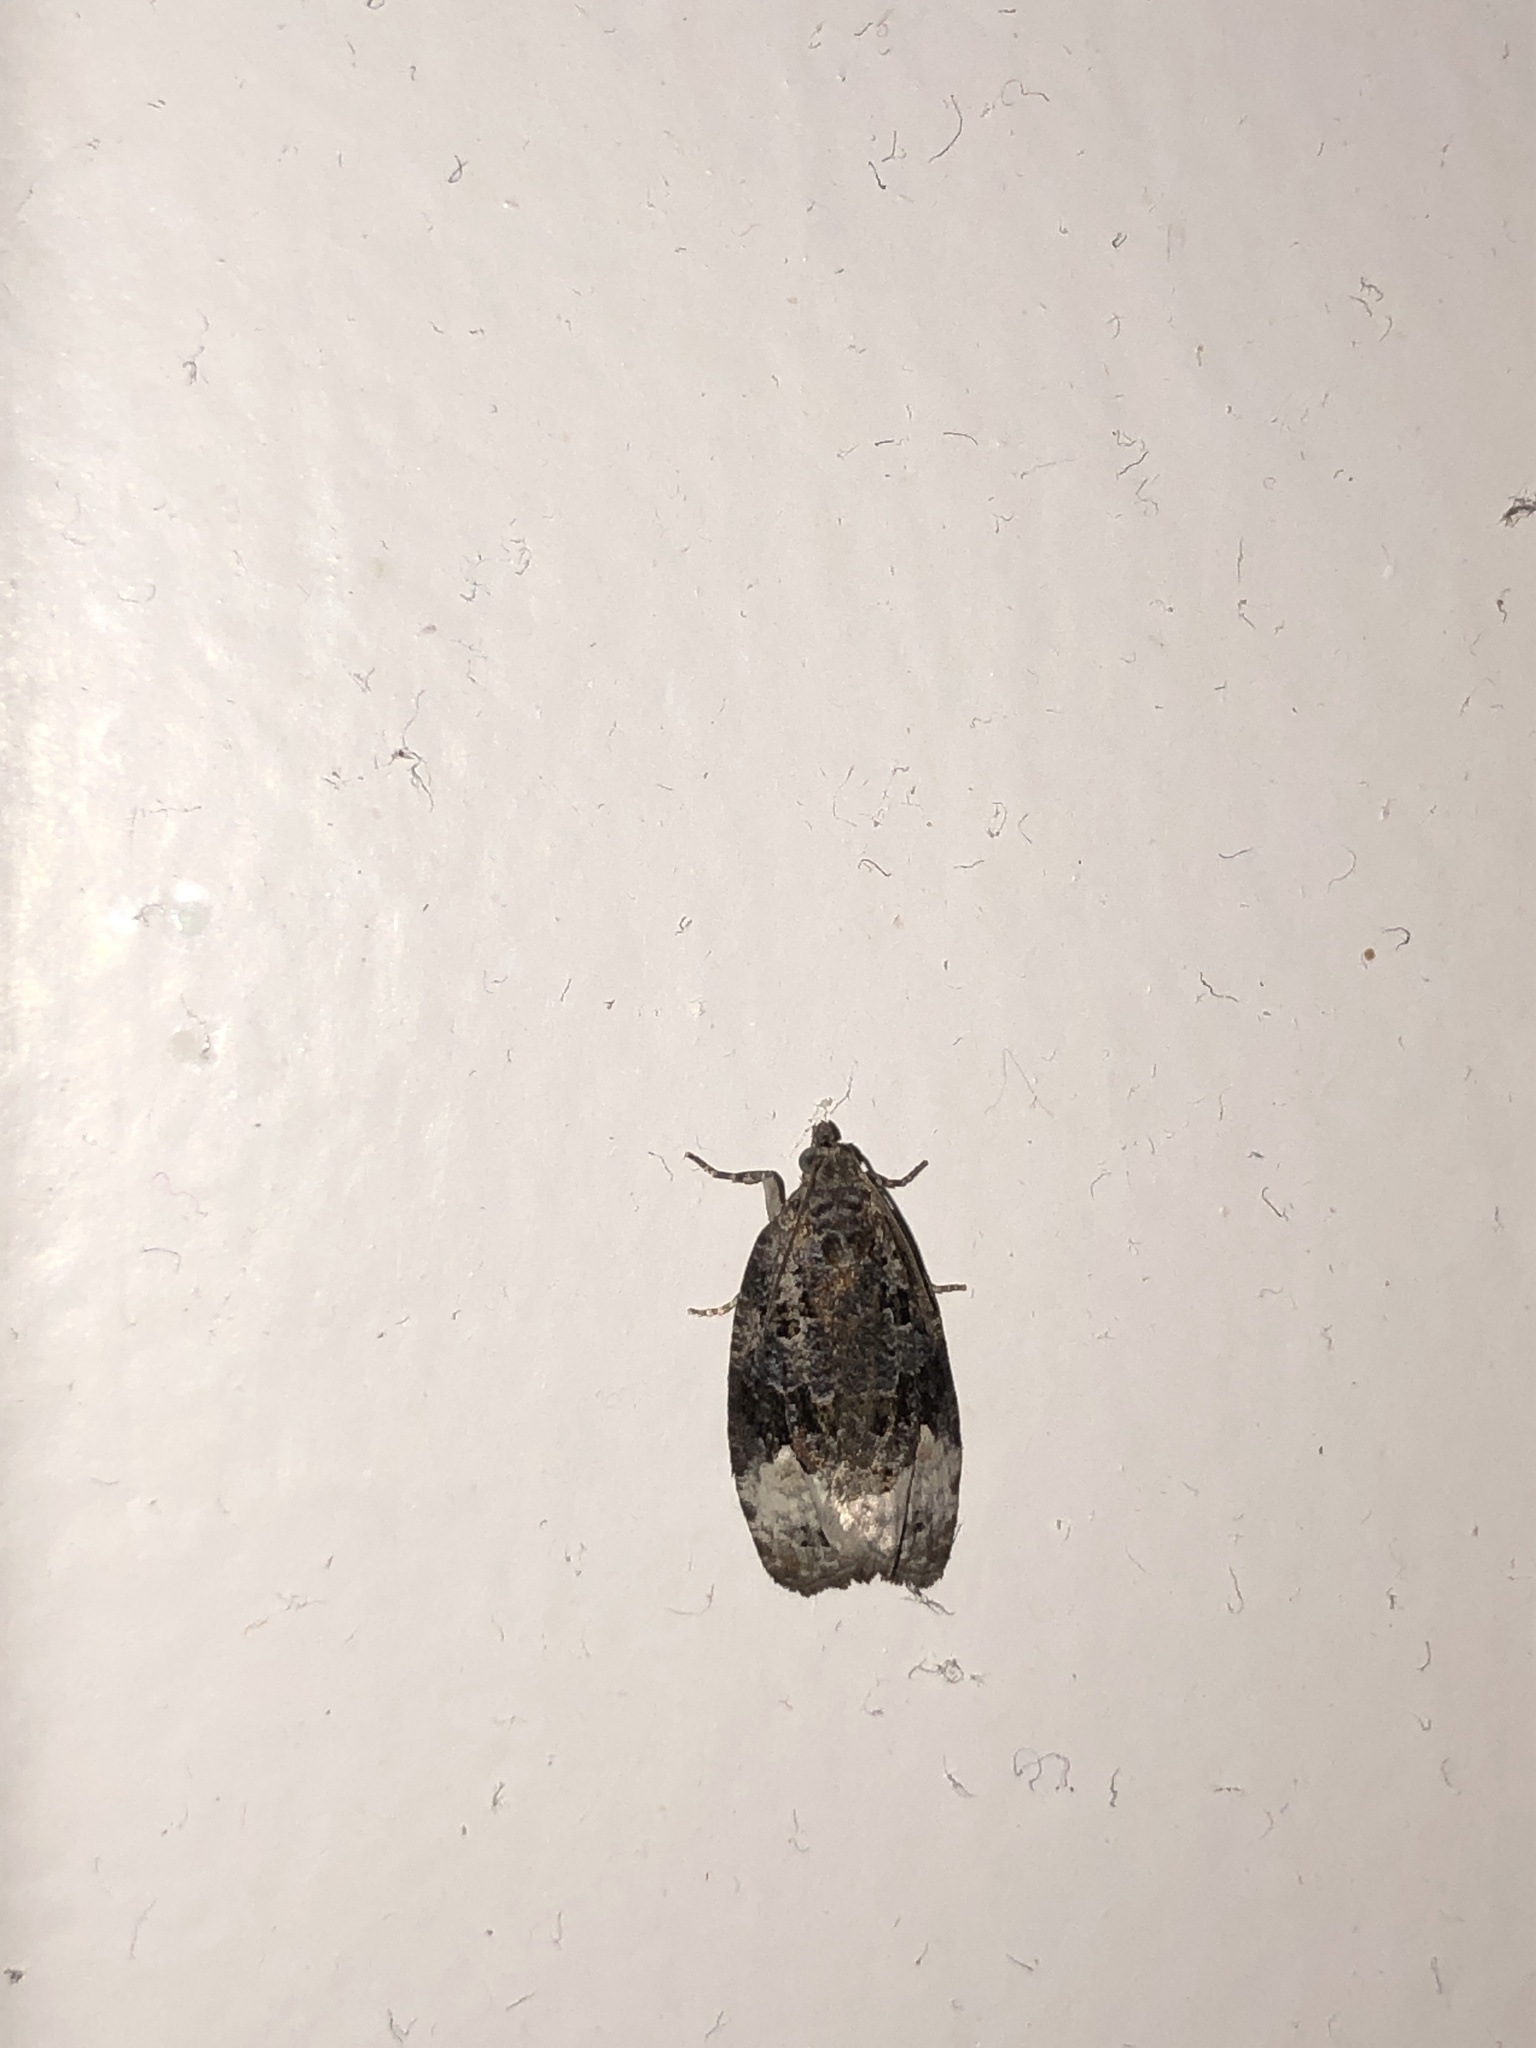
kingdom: Animalia
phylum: Arthropoda
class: Insecta
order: Lepidoptera
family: Tortricidae
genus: Apotomis
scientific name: Apotomis capreana
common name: Sallow marble
